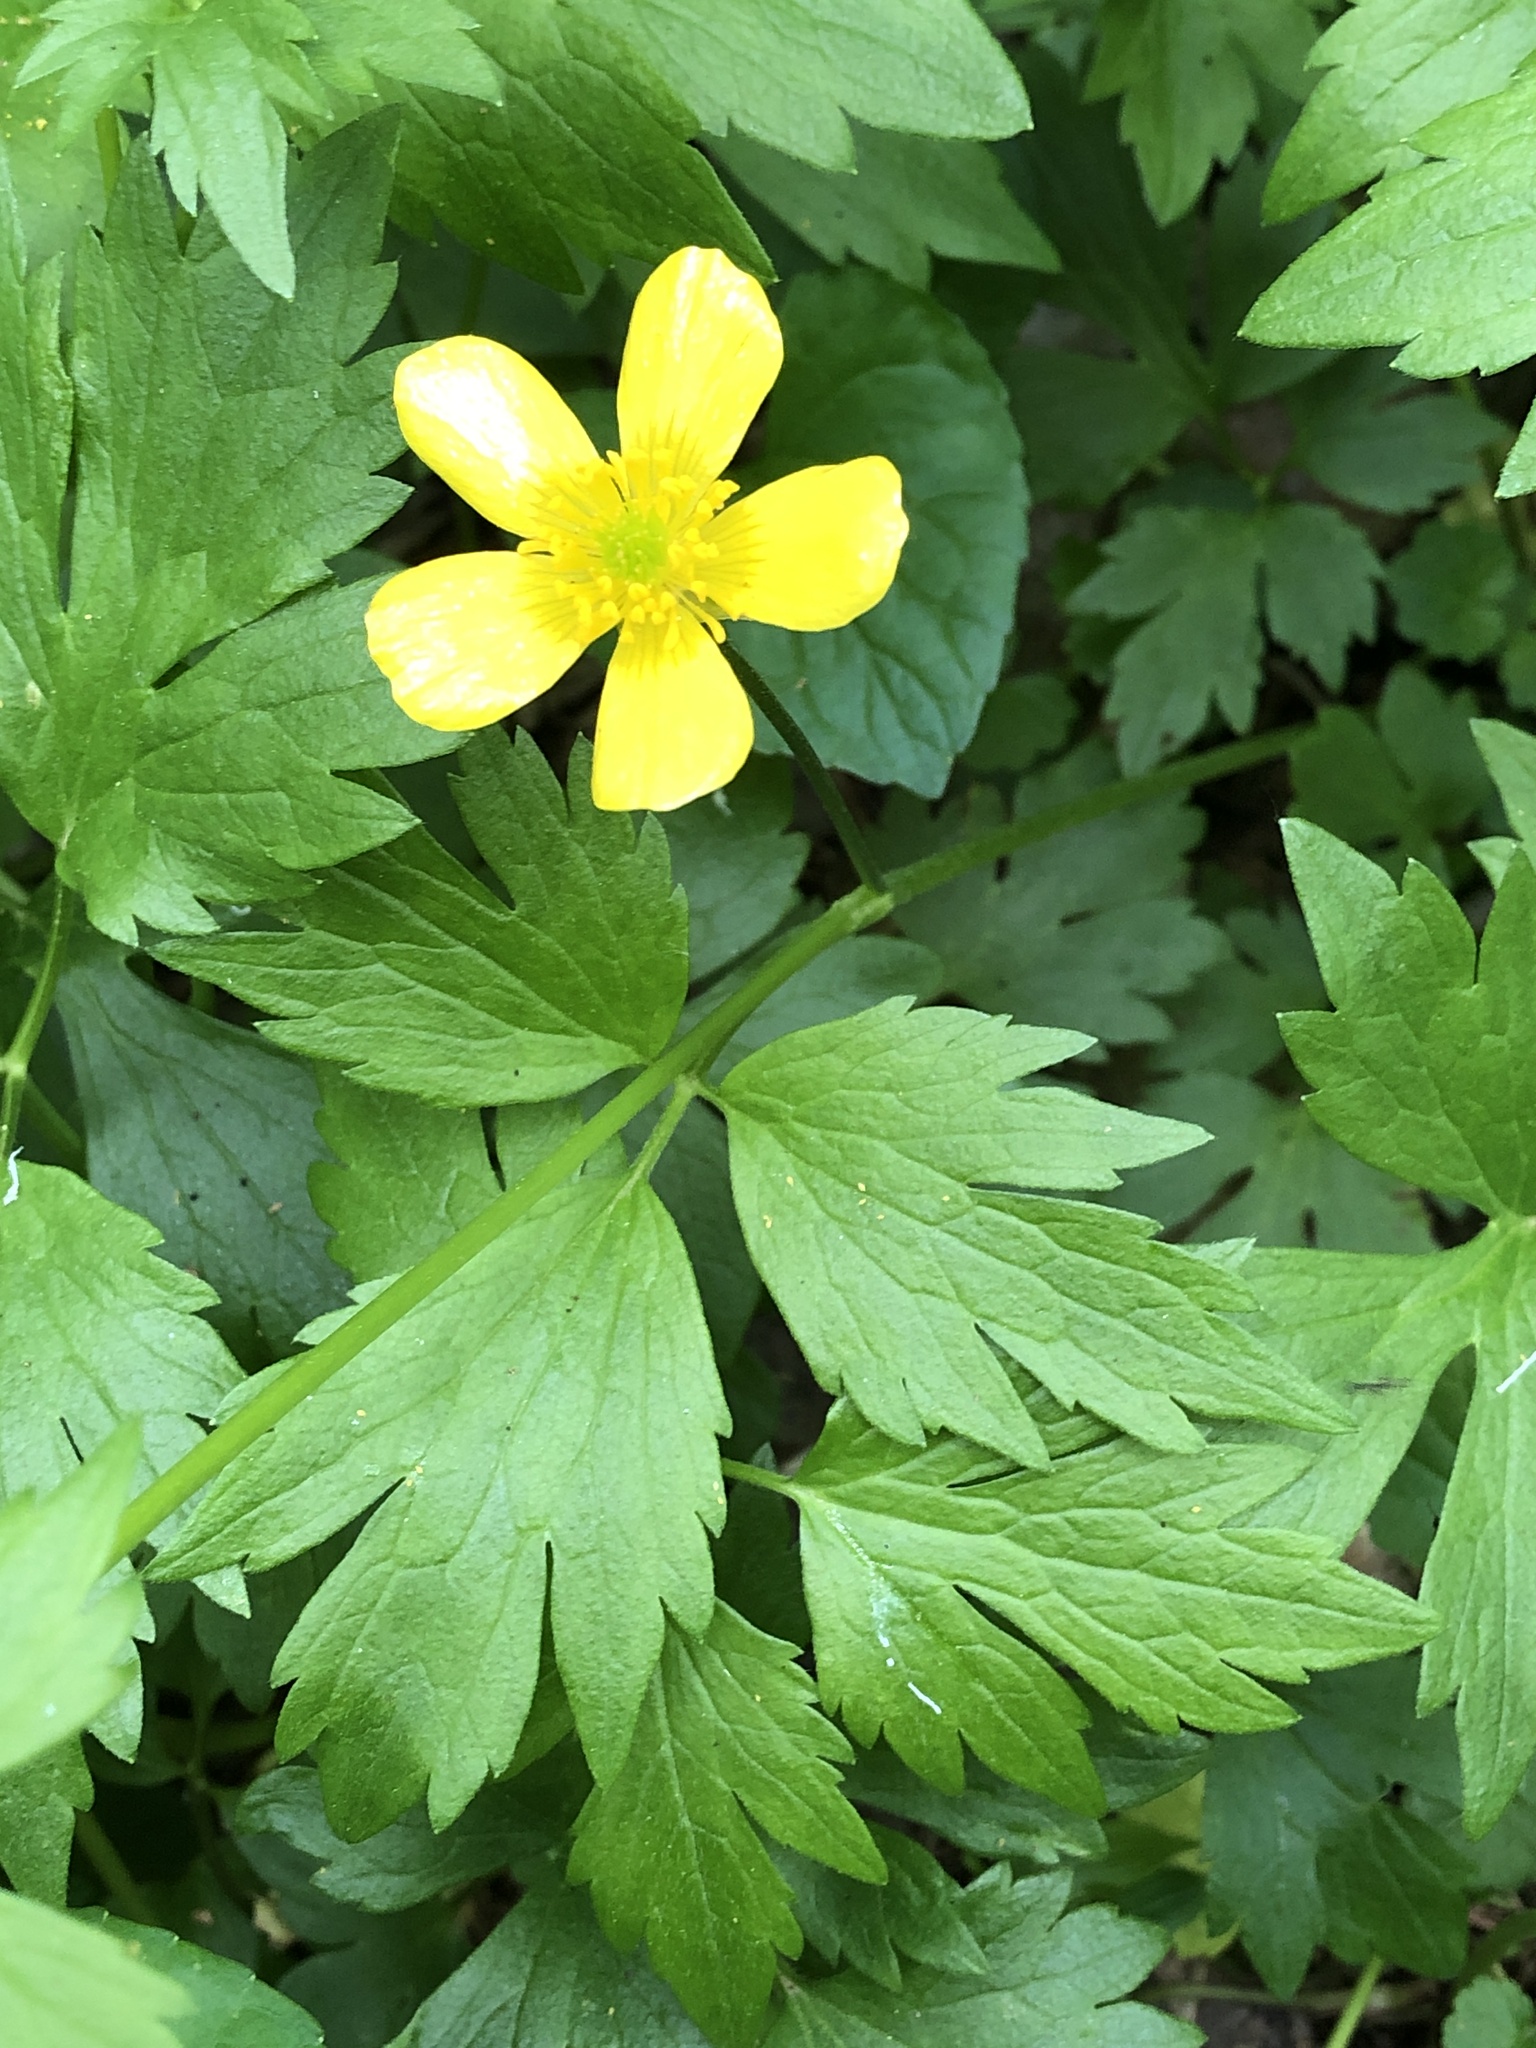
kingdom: Plantae
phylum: Tracheophyta
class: Magnoliopsida
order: Ranunculales
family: Ranunculaceae
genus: Ranunculus
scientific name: Ranunculus hispidus
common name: Bristly buttercup
